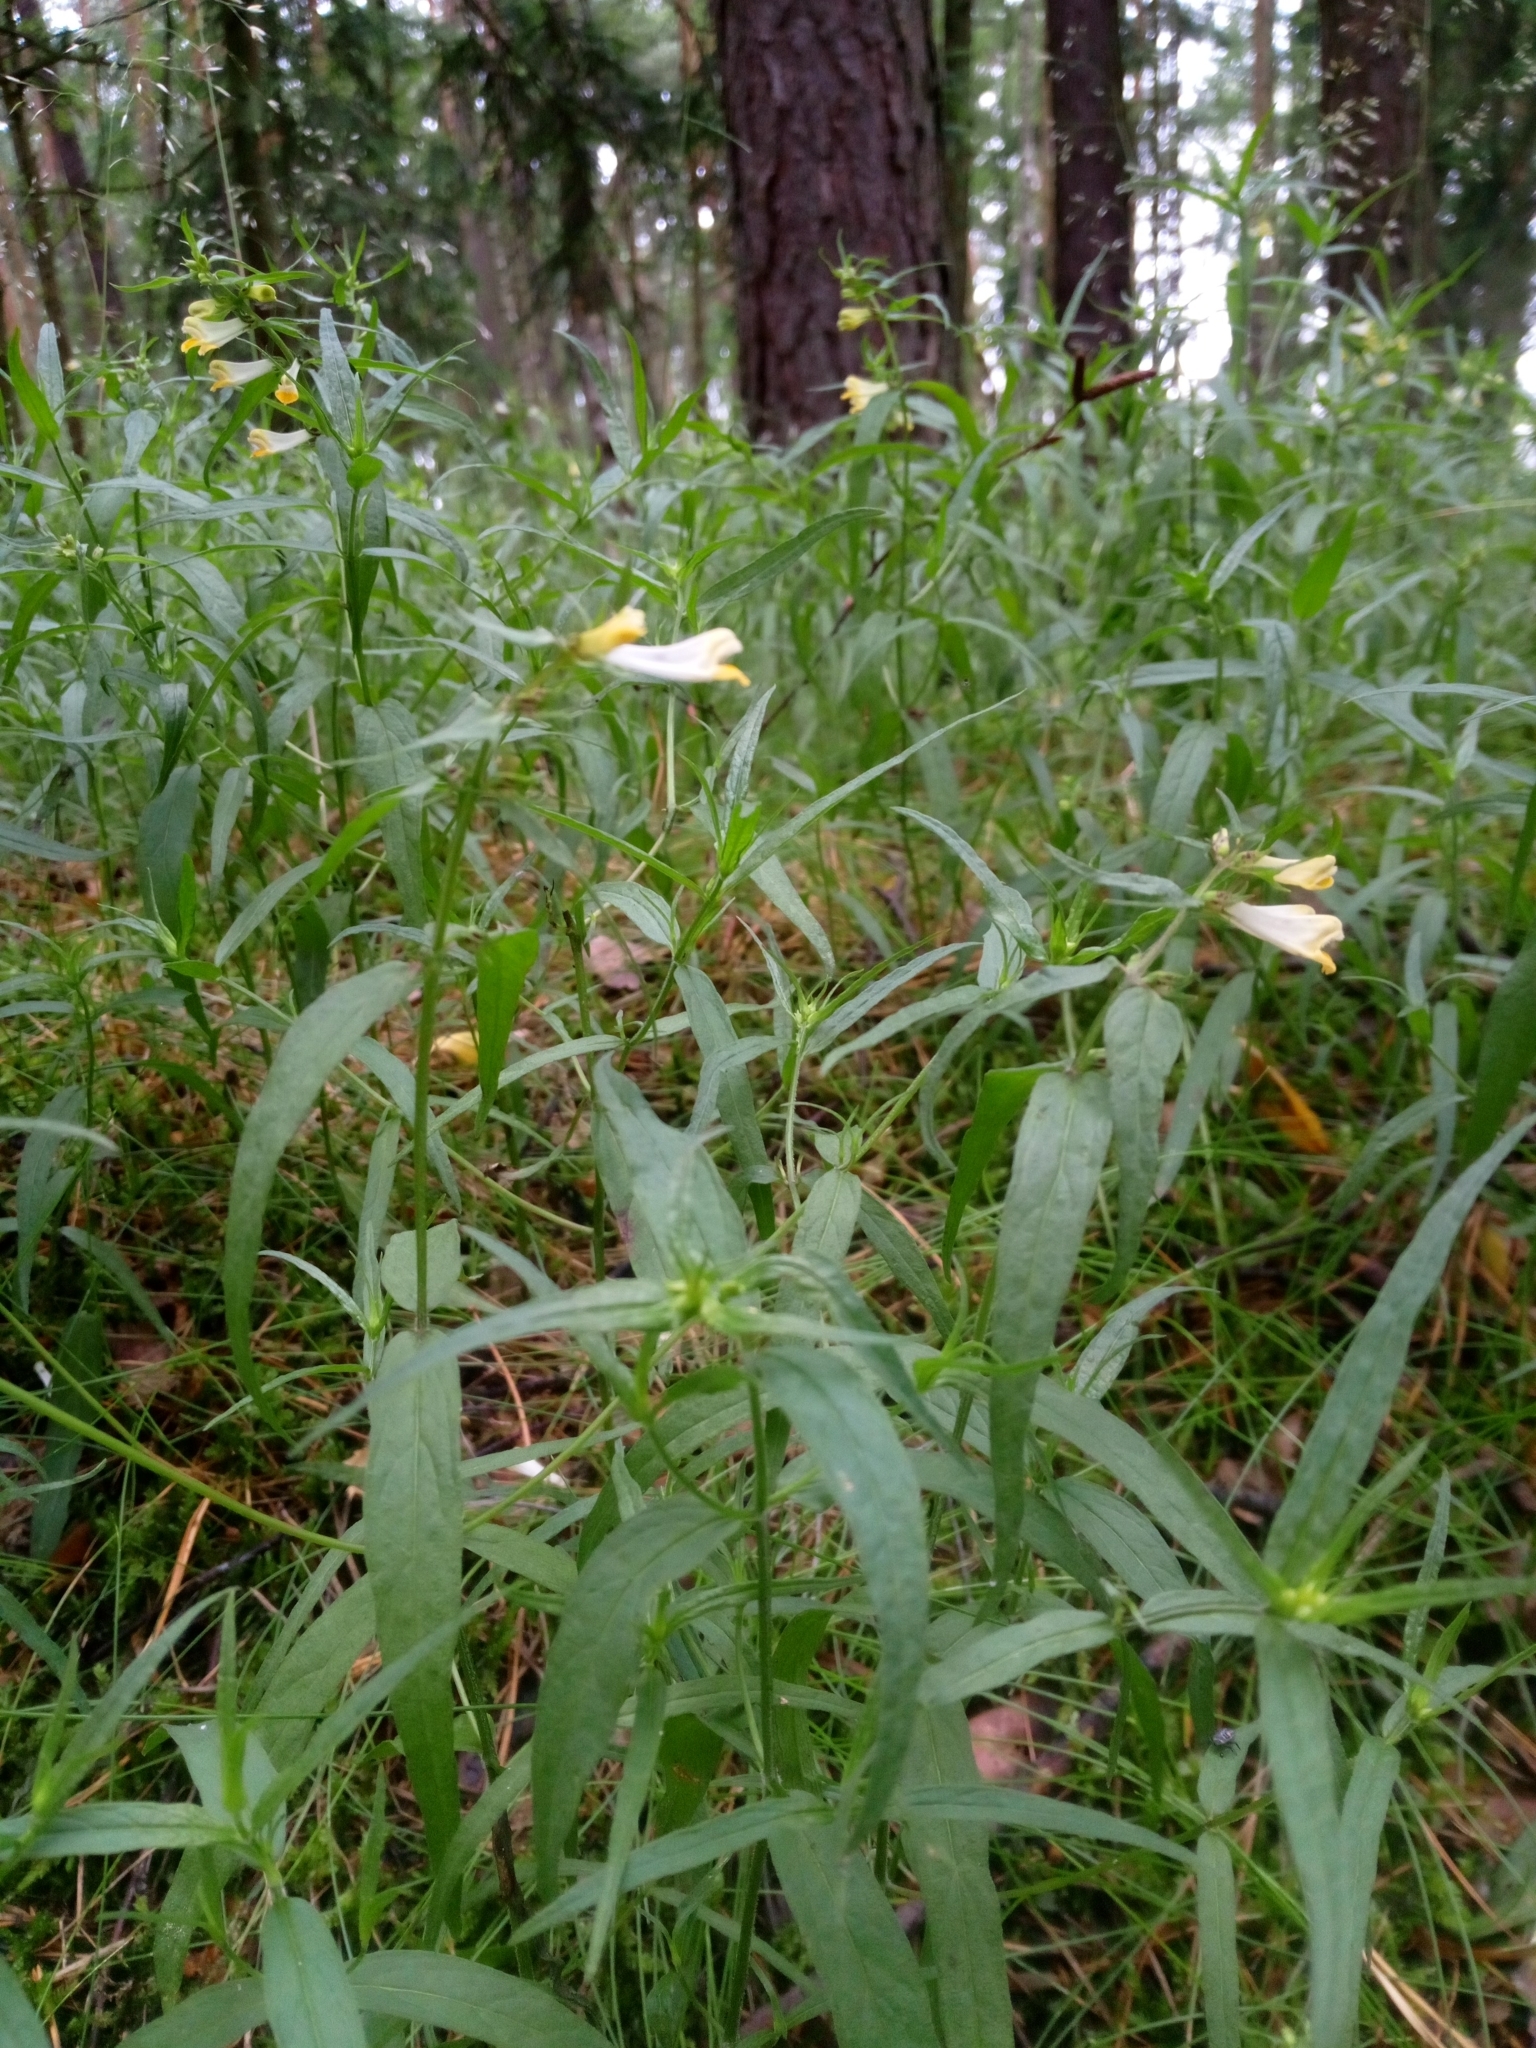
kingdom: Plantae
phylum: Tracheophyta
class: Magnoliopsida
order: Lamiales
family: Orobanchaceae
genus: Melampyrum
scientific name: Melampyrum pratense
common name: Common cow-wheat
